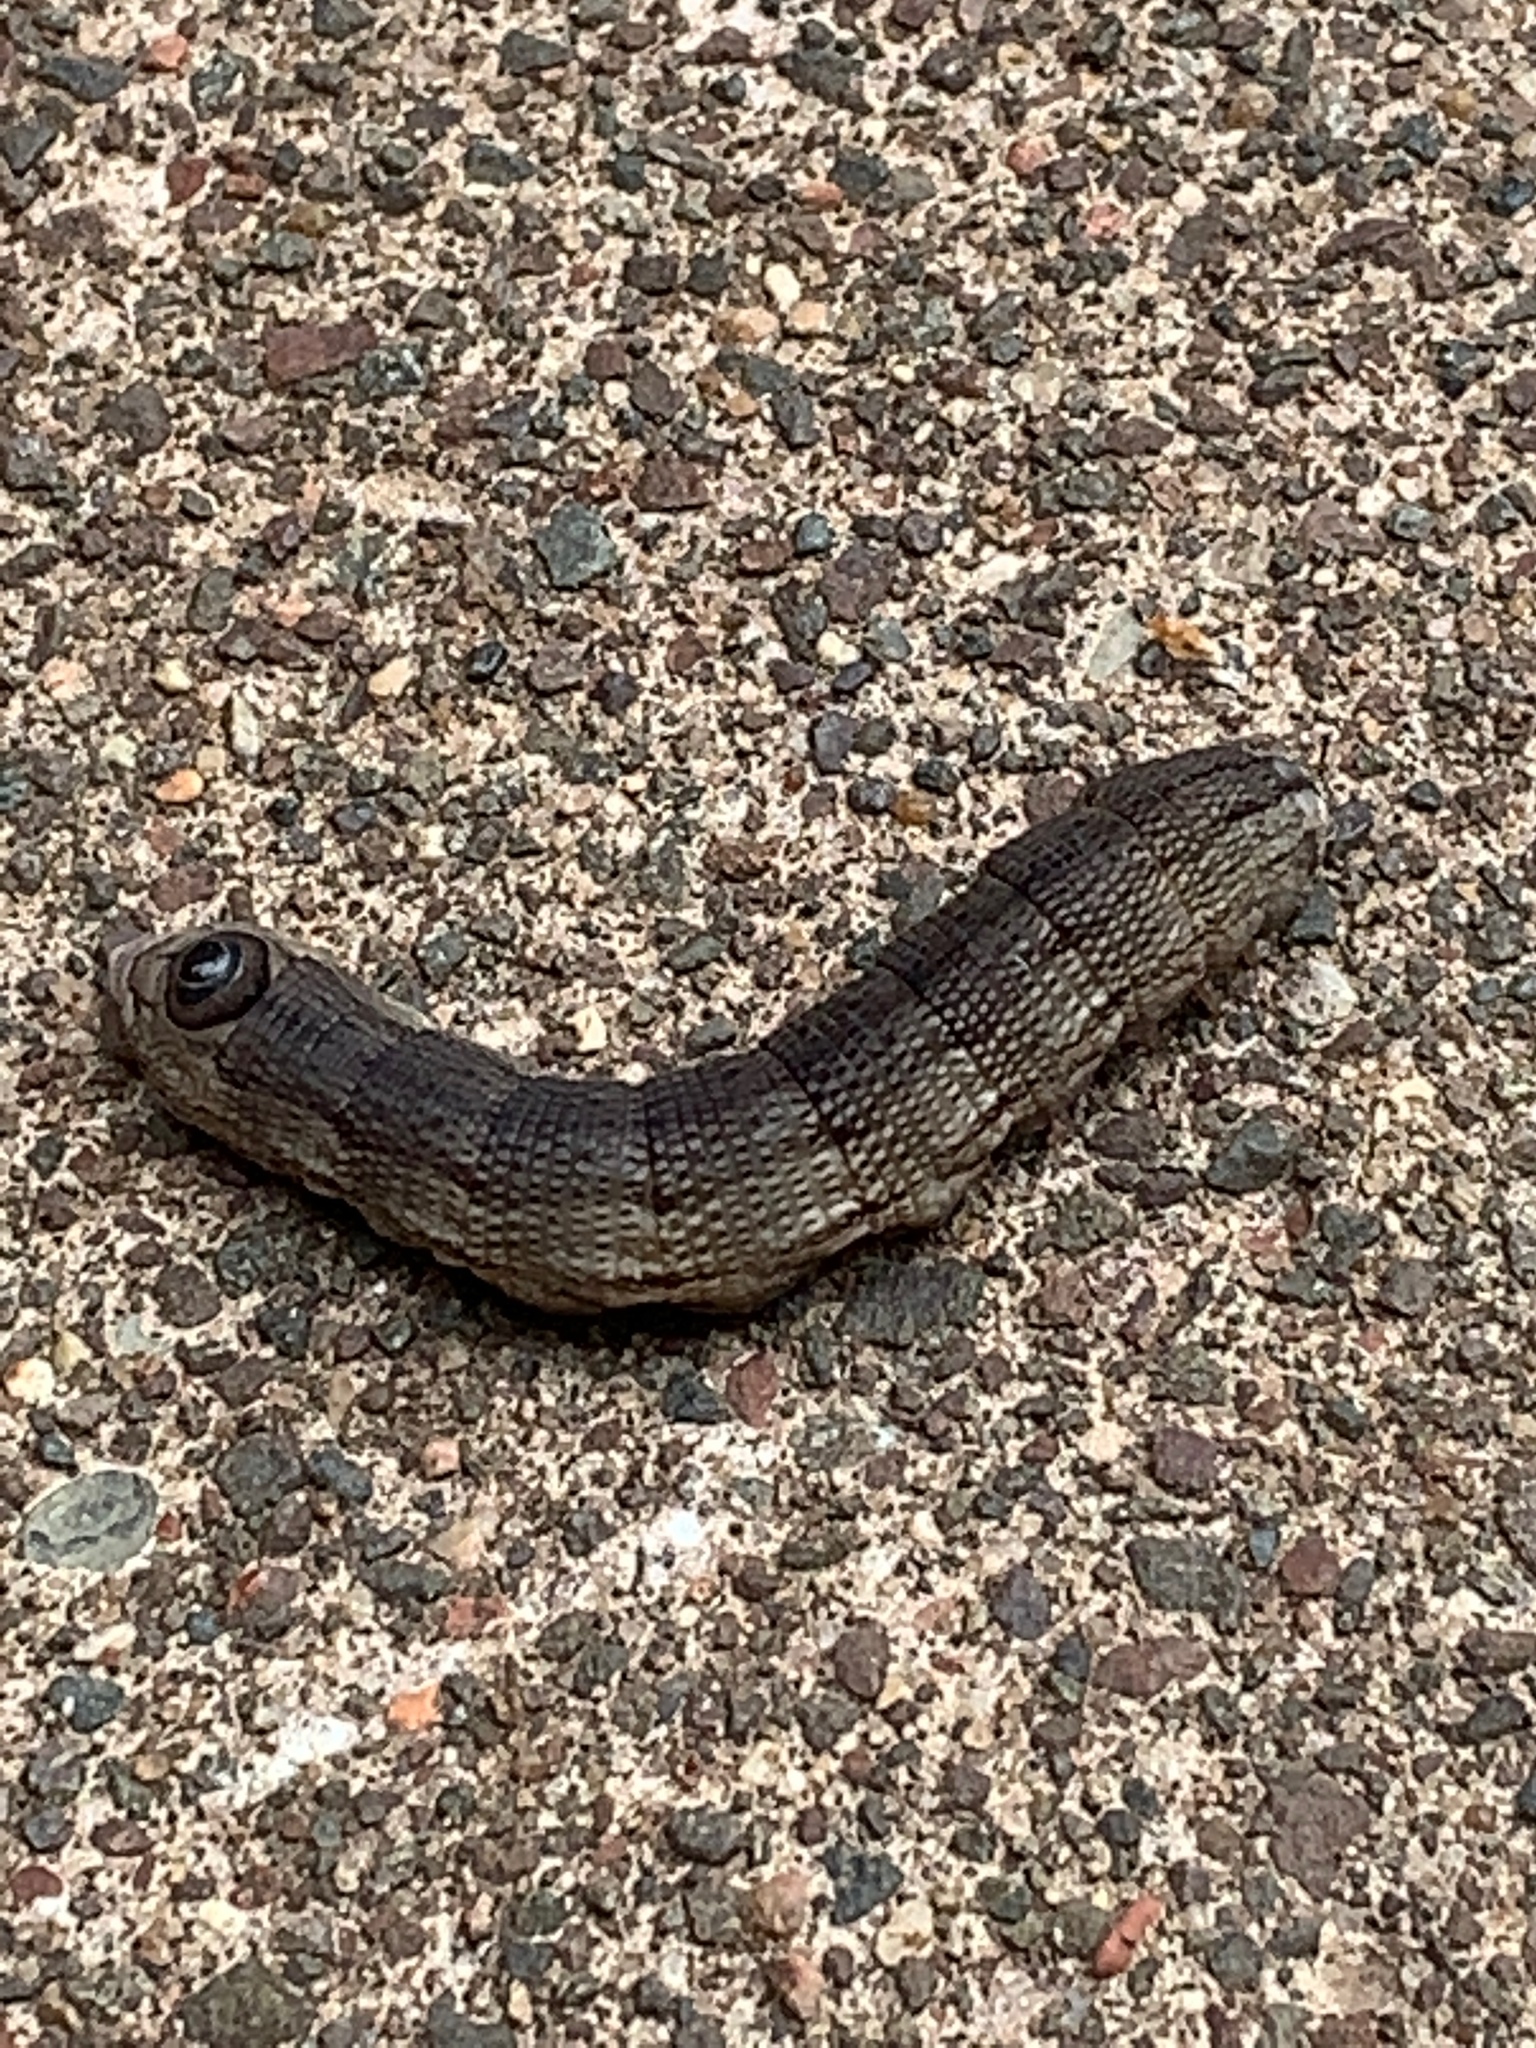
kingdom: Animalia
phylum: Arthropoda
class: Insecta
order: Lepidoptera
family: Sphingidae
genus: Sphecodina
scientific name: Sphecodina abbottii
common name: Abbott's sphinx
